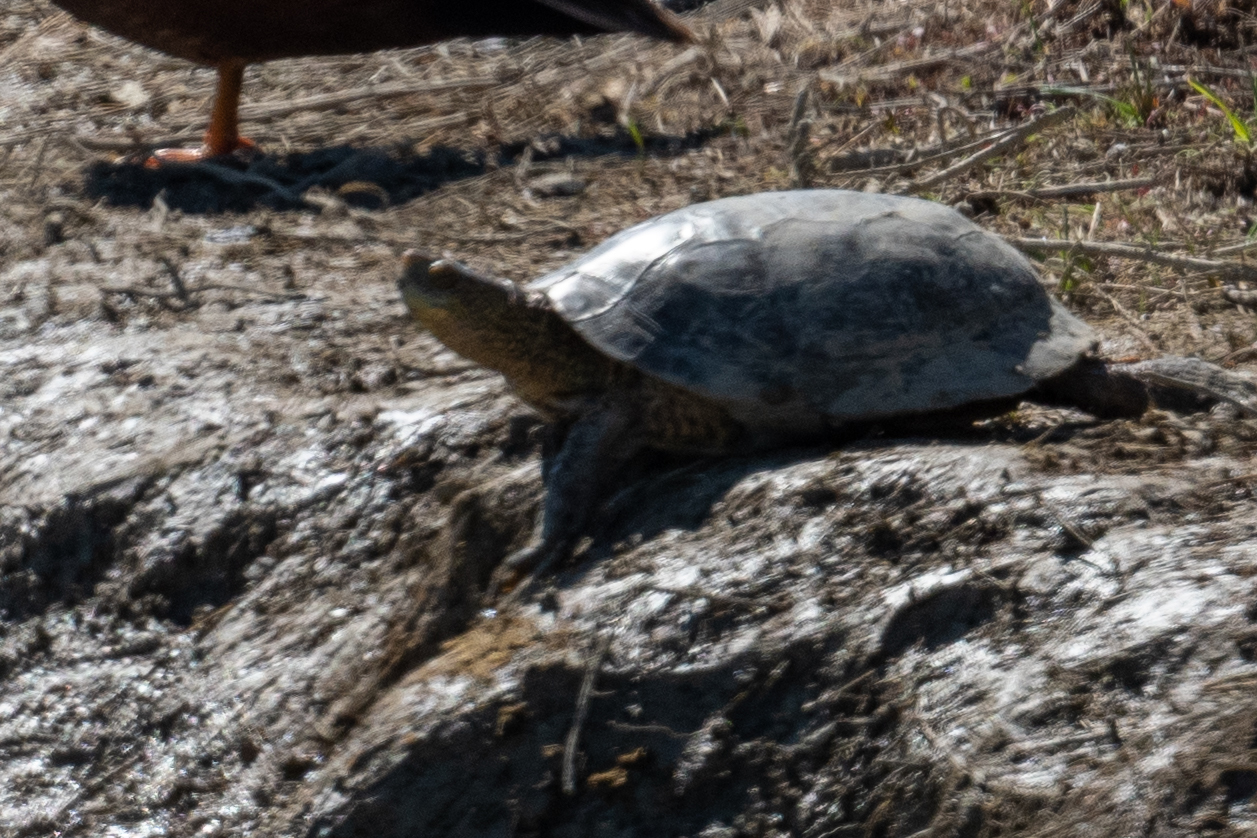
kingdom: Animalia
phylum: Chordata
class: Testudines
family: Emydidae
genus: Actinemys
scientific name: Actinemys marmorata
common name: Western pond turtle
